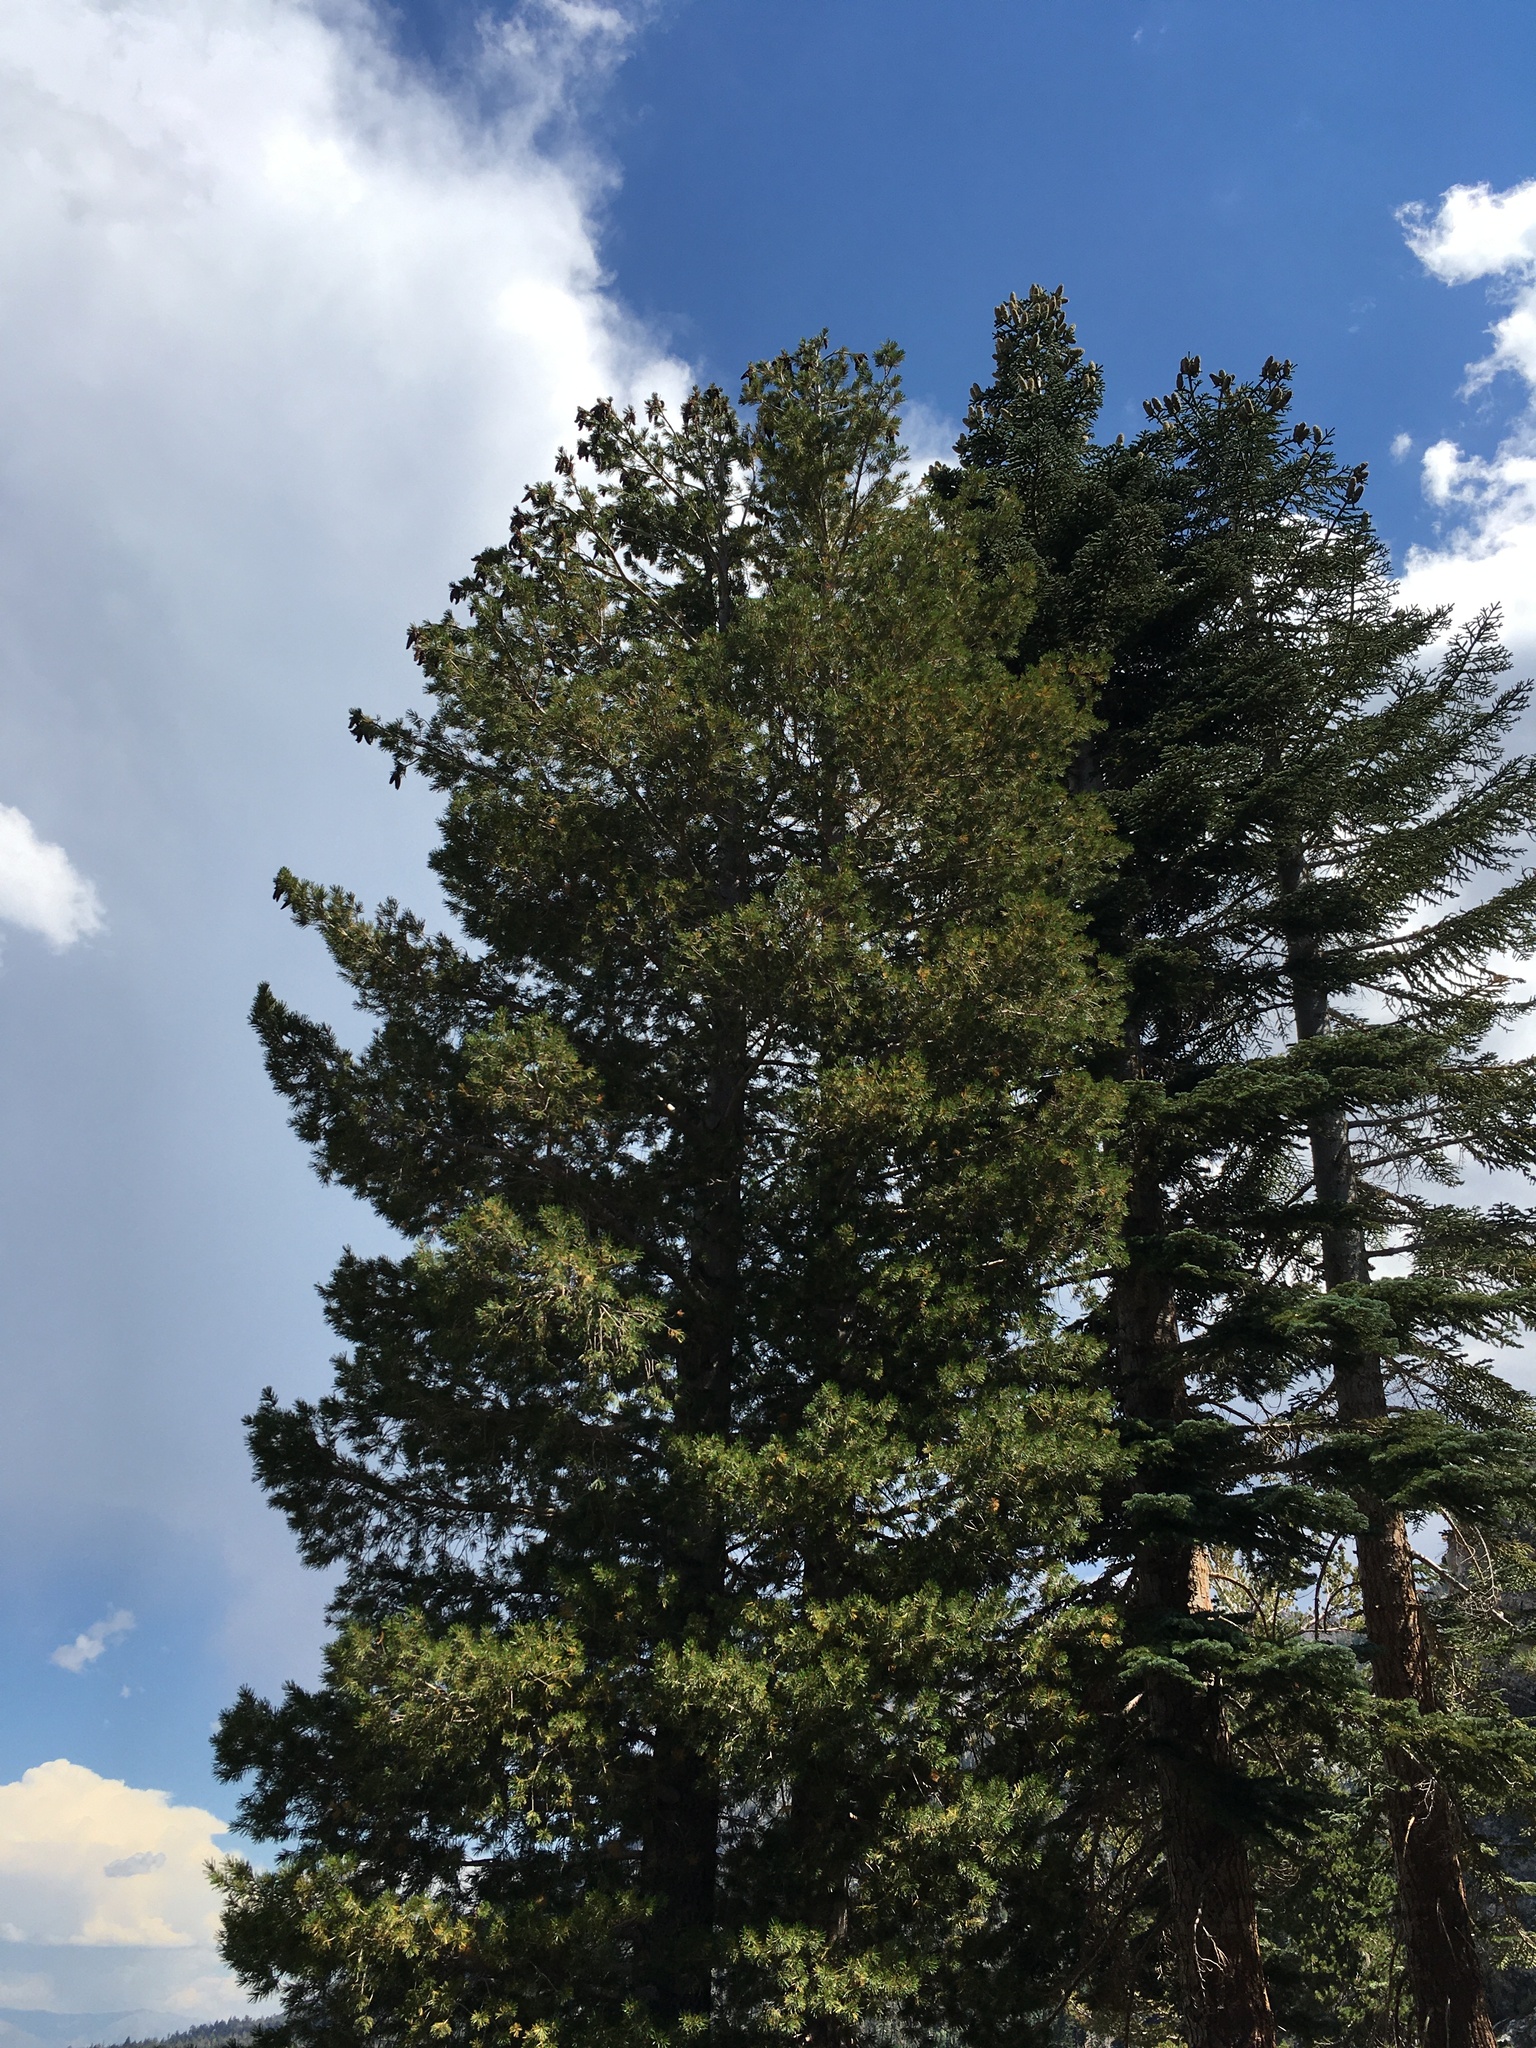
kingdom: Plantae
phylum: Tracheophyta
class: Pinopsida
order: Pinales
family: Pinaceae
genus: Pinus
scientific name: Pinus monticola
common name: Western white pine
